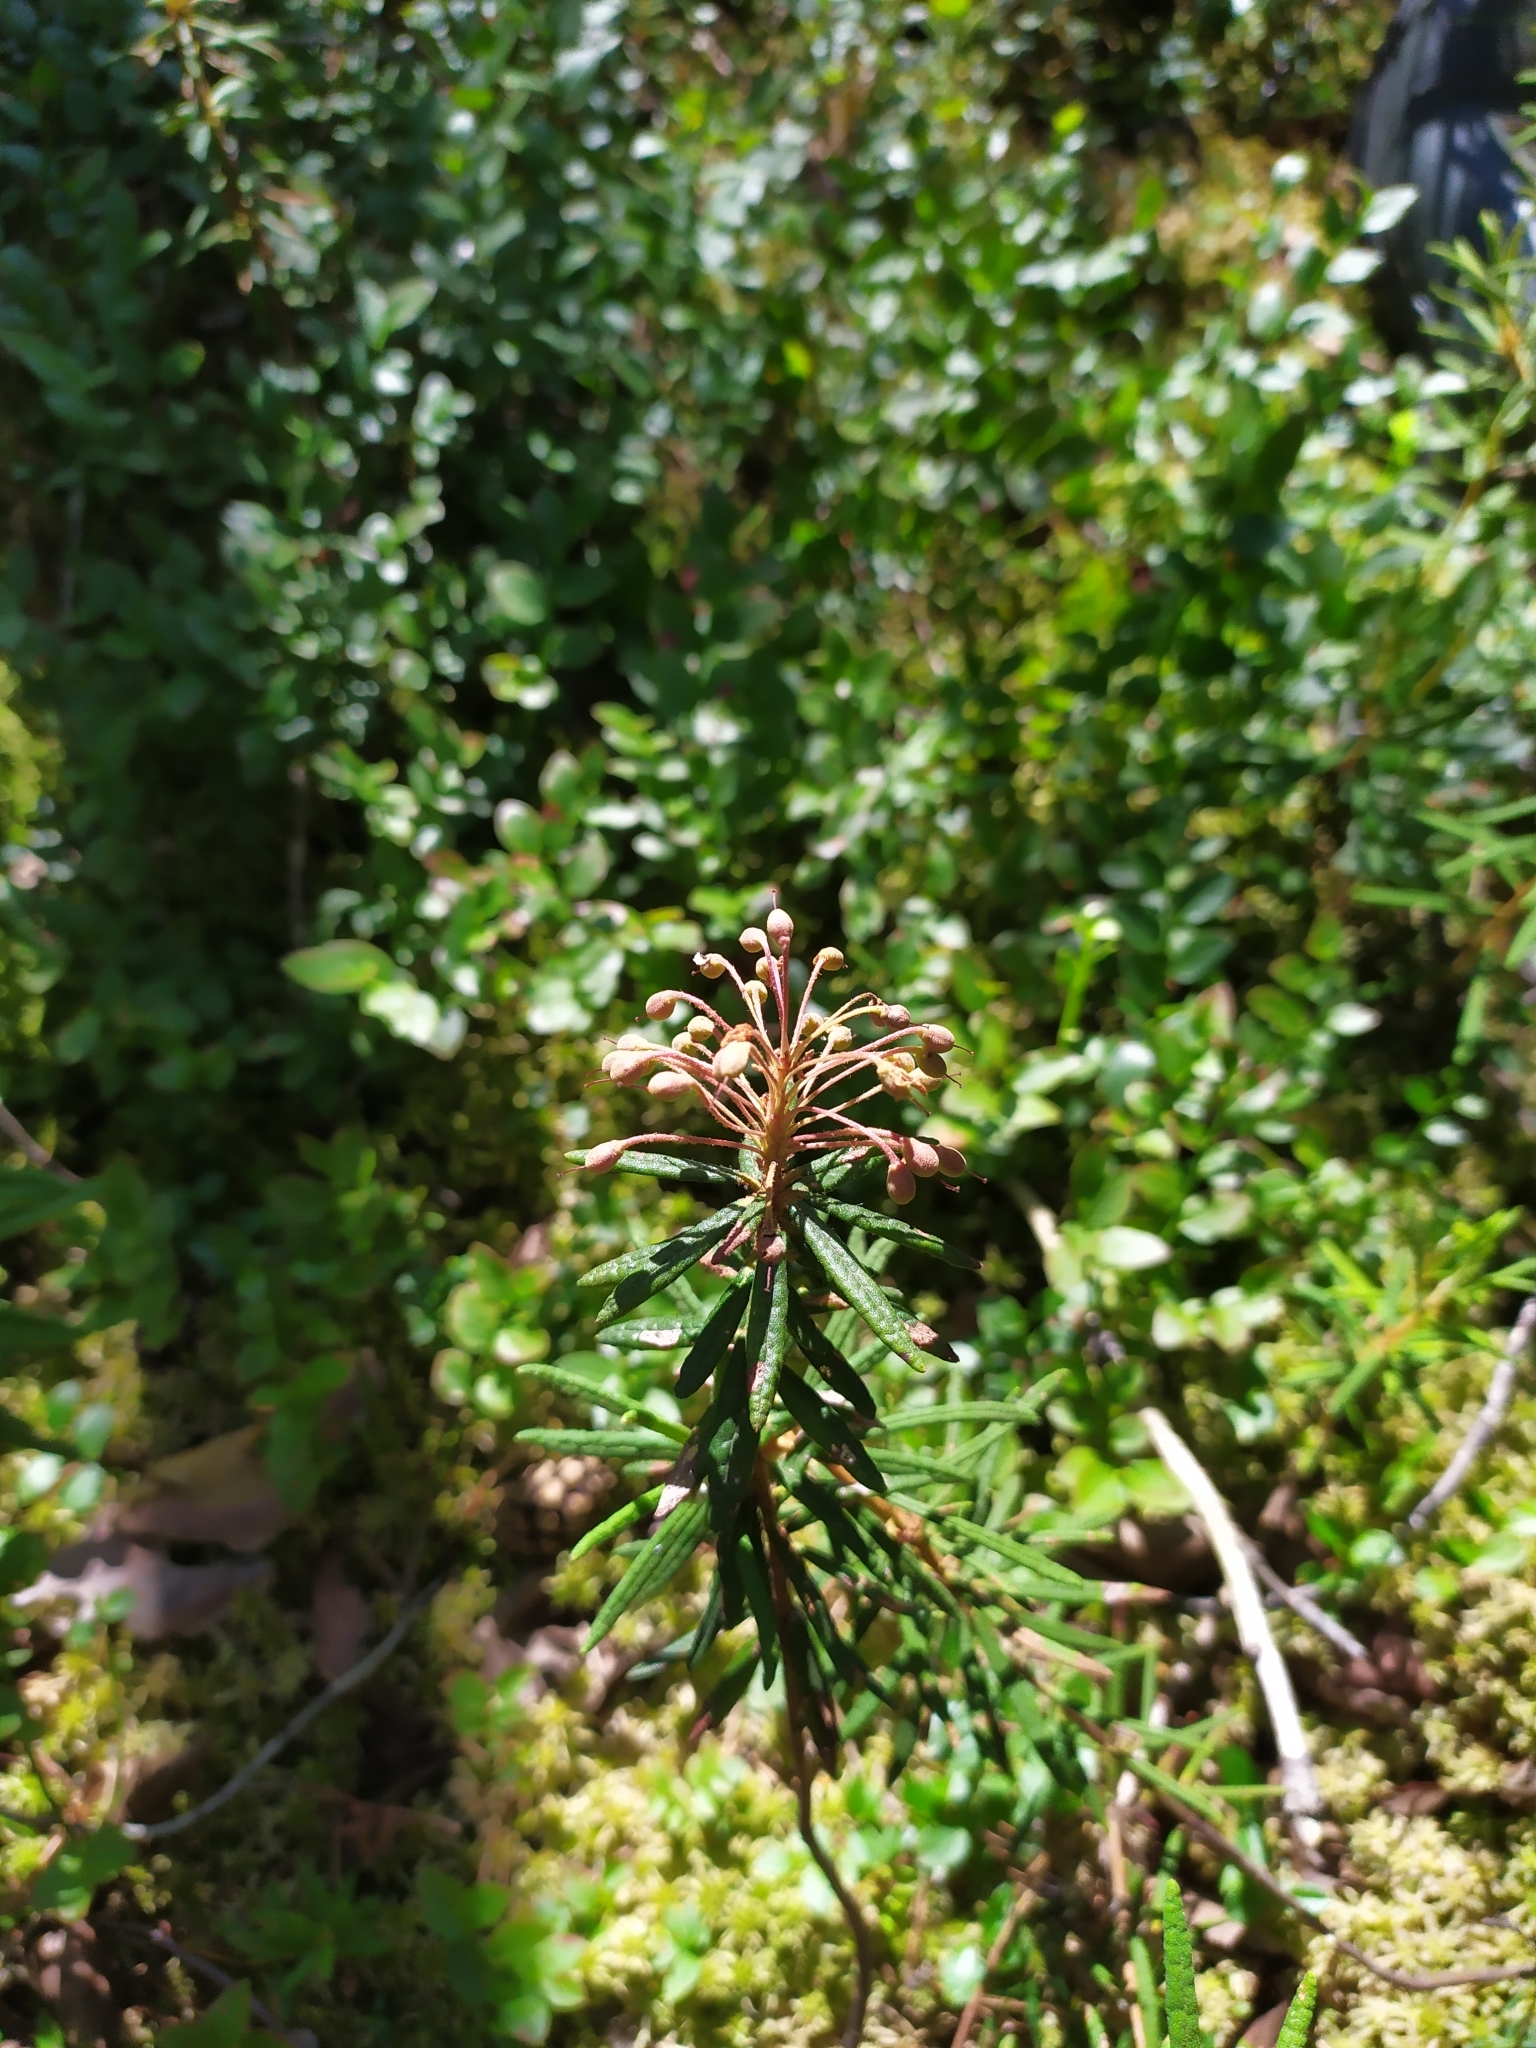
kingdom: Plantae
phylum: Tracheophyta
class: Magnoliopsida
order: Ericales
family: Ericaceae
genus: Rhododendron
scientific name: Rhododendron tomentosum
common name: Marsh labrador tea
